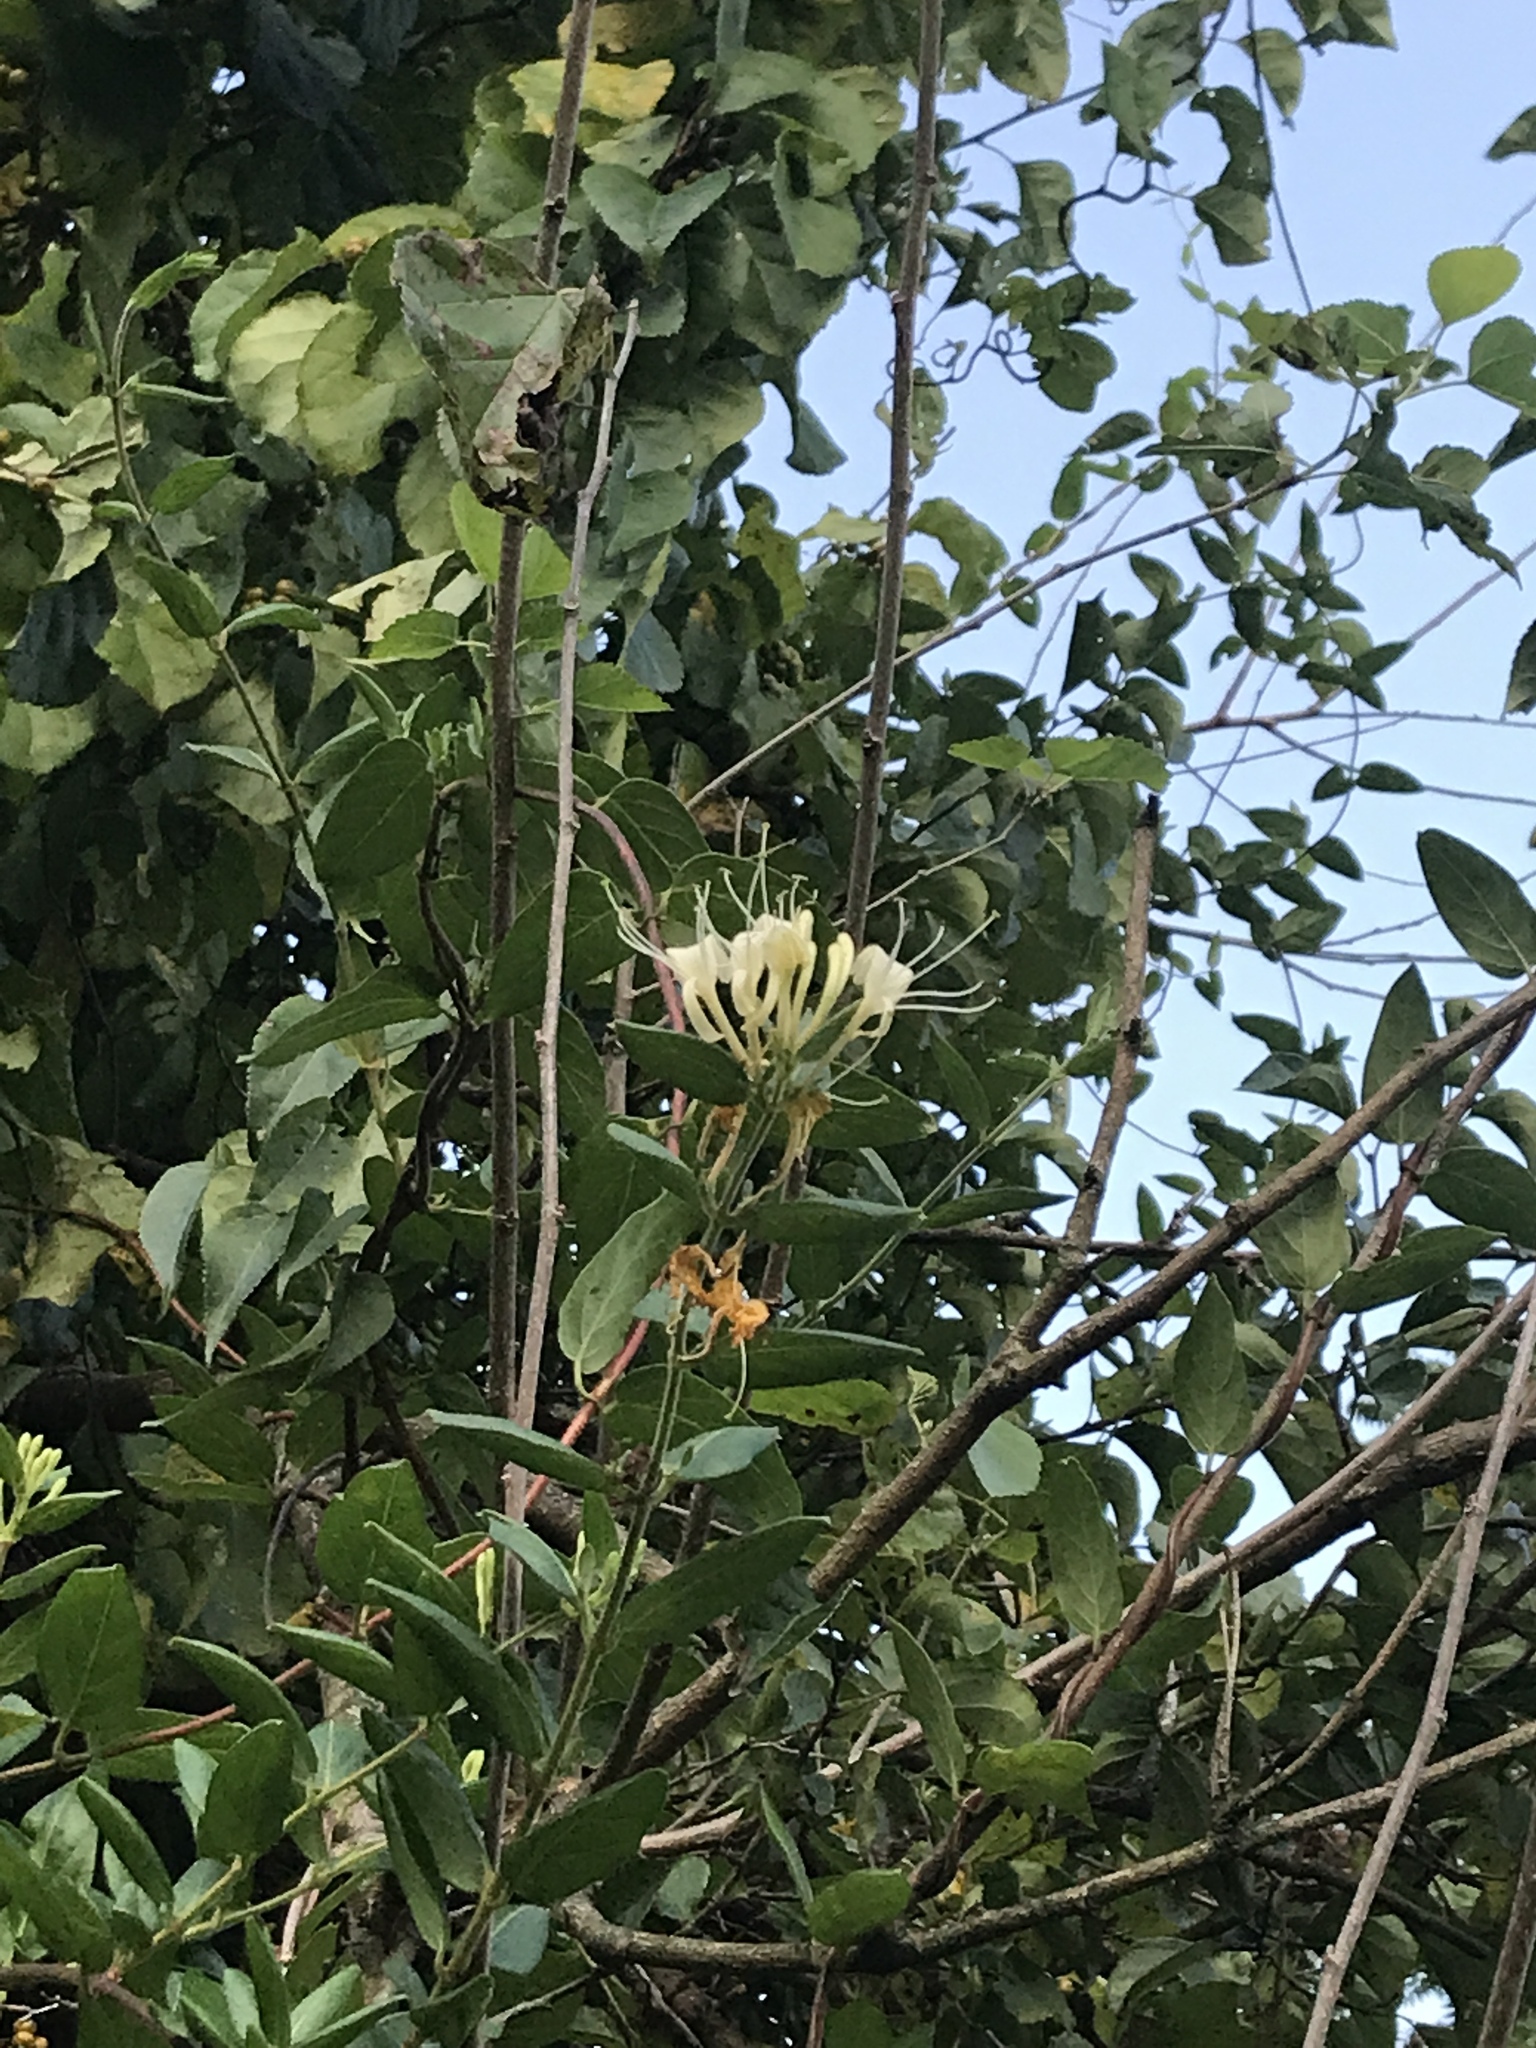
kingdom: Plantae
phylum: Tracheophyta
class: Magnoliopsida
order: Dipsacales
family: Caprifoliaceae
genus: Lonicera
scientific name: Lonicera japonica
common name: Japanese honeysuckle
